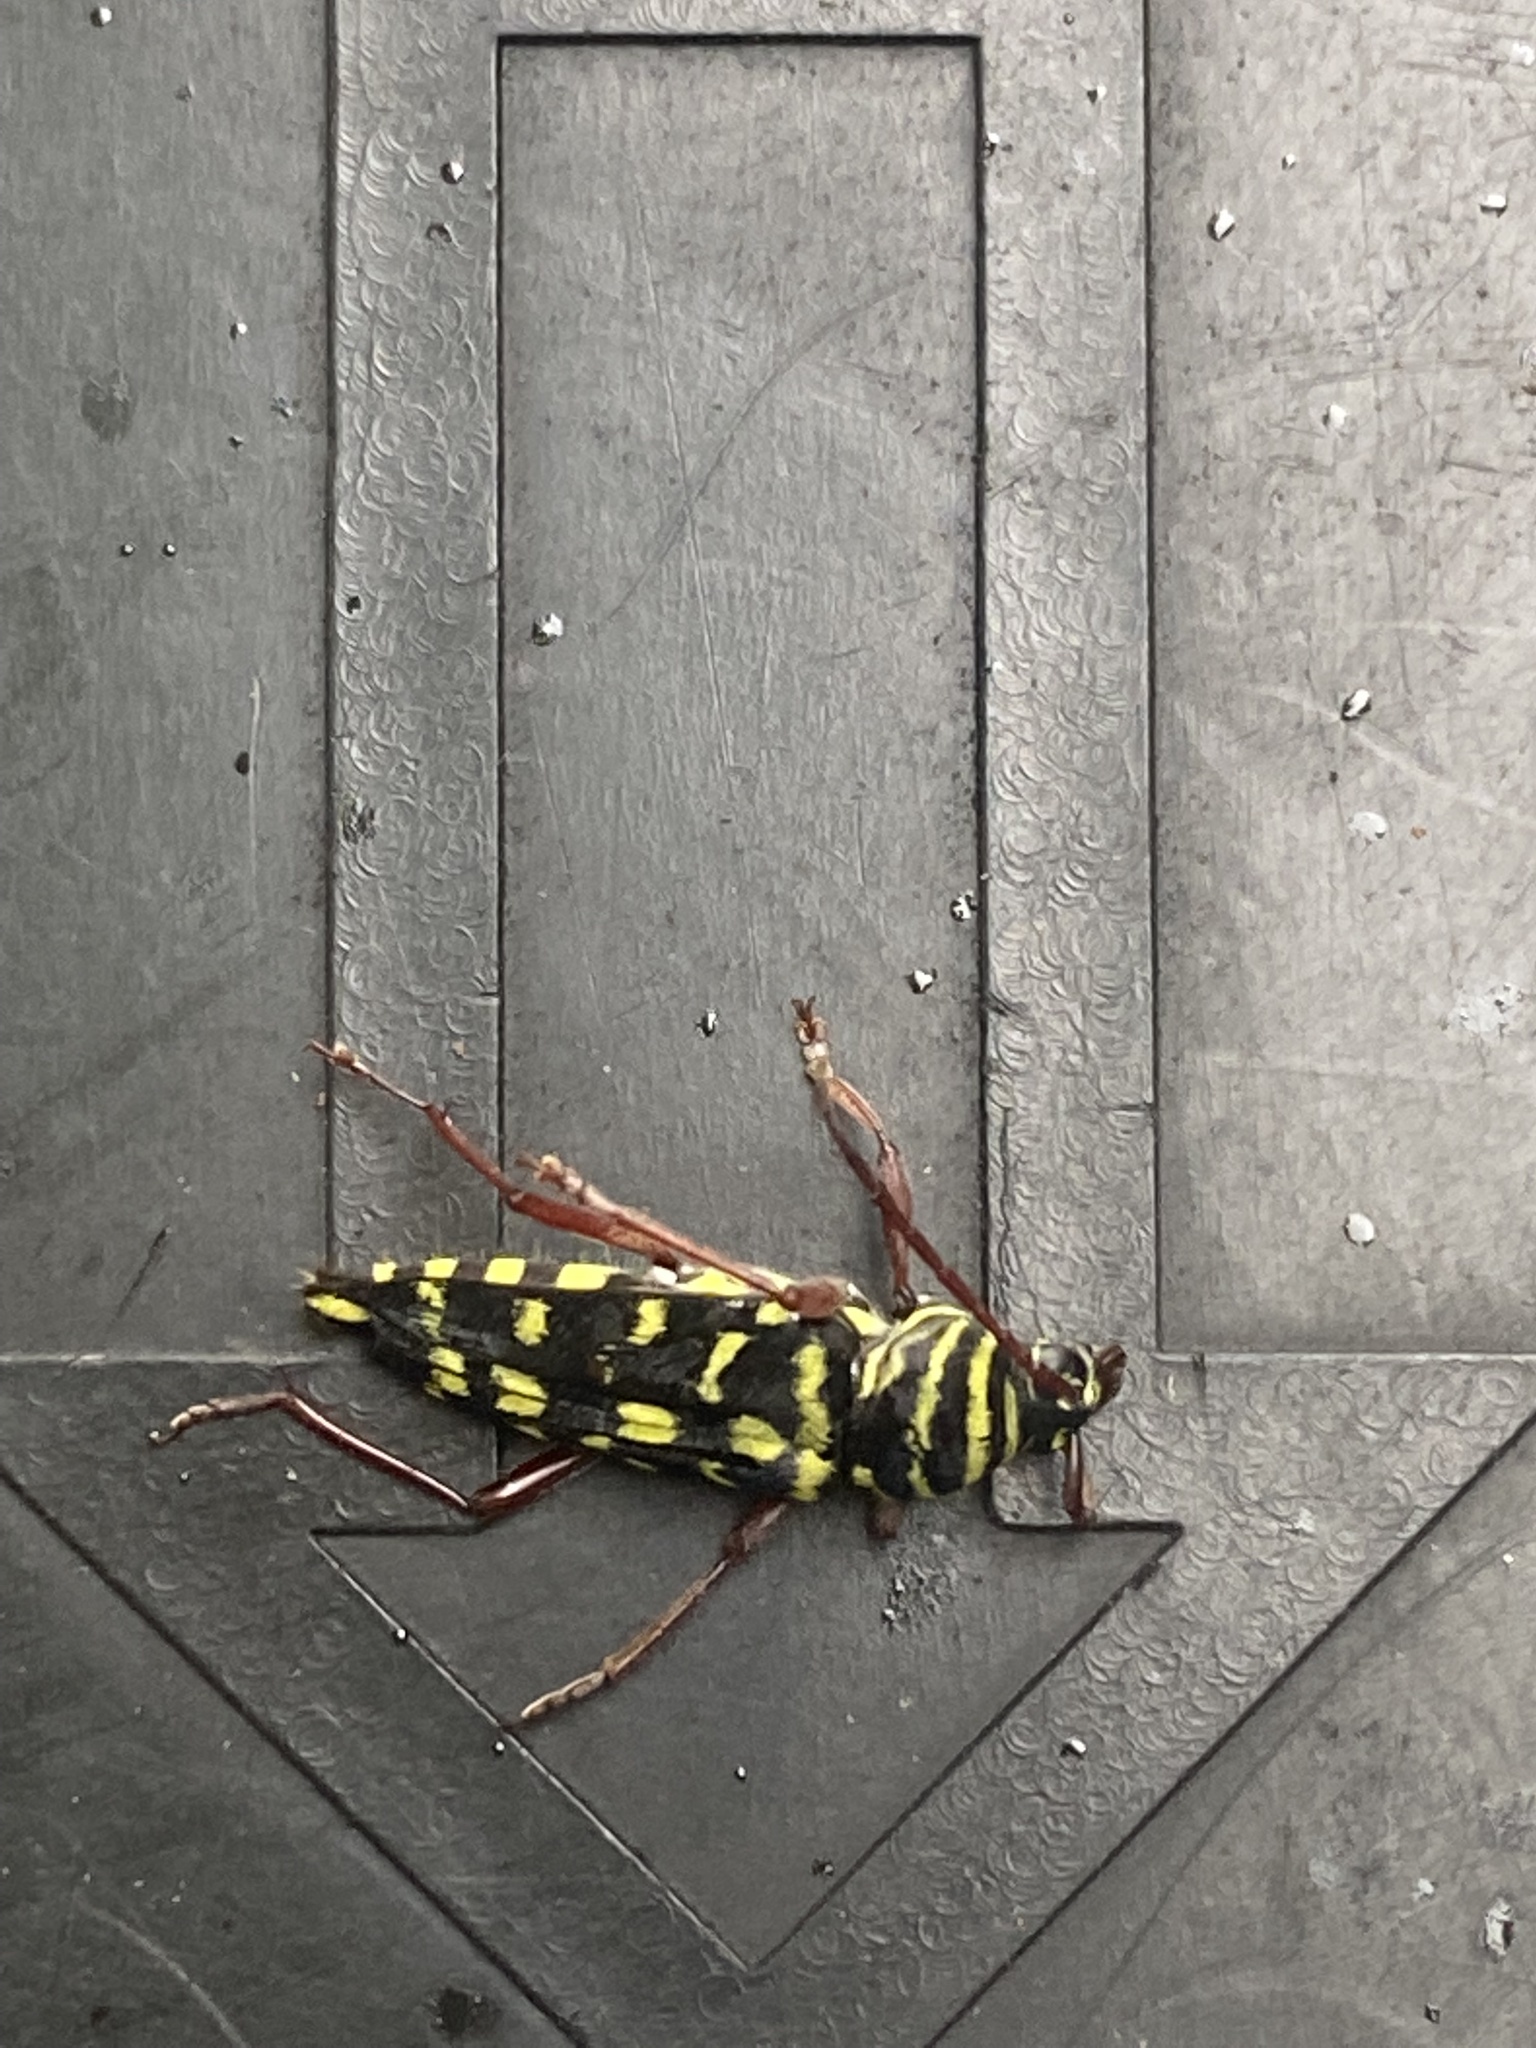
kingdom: Animalia
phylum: Arthropoda
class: Insecta
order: Coleoptera
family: Cerambycidae
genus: Placosternus
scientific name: Placosternus difficilis
